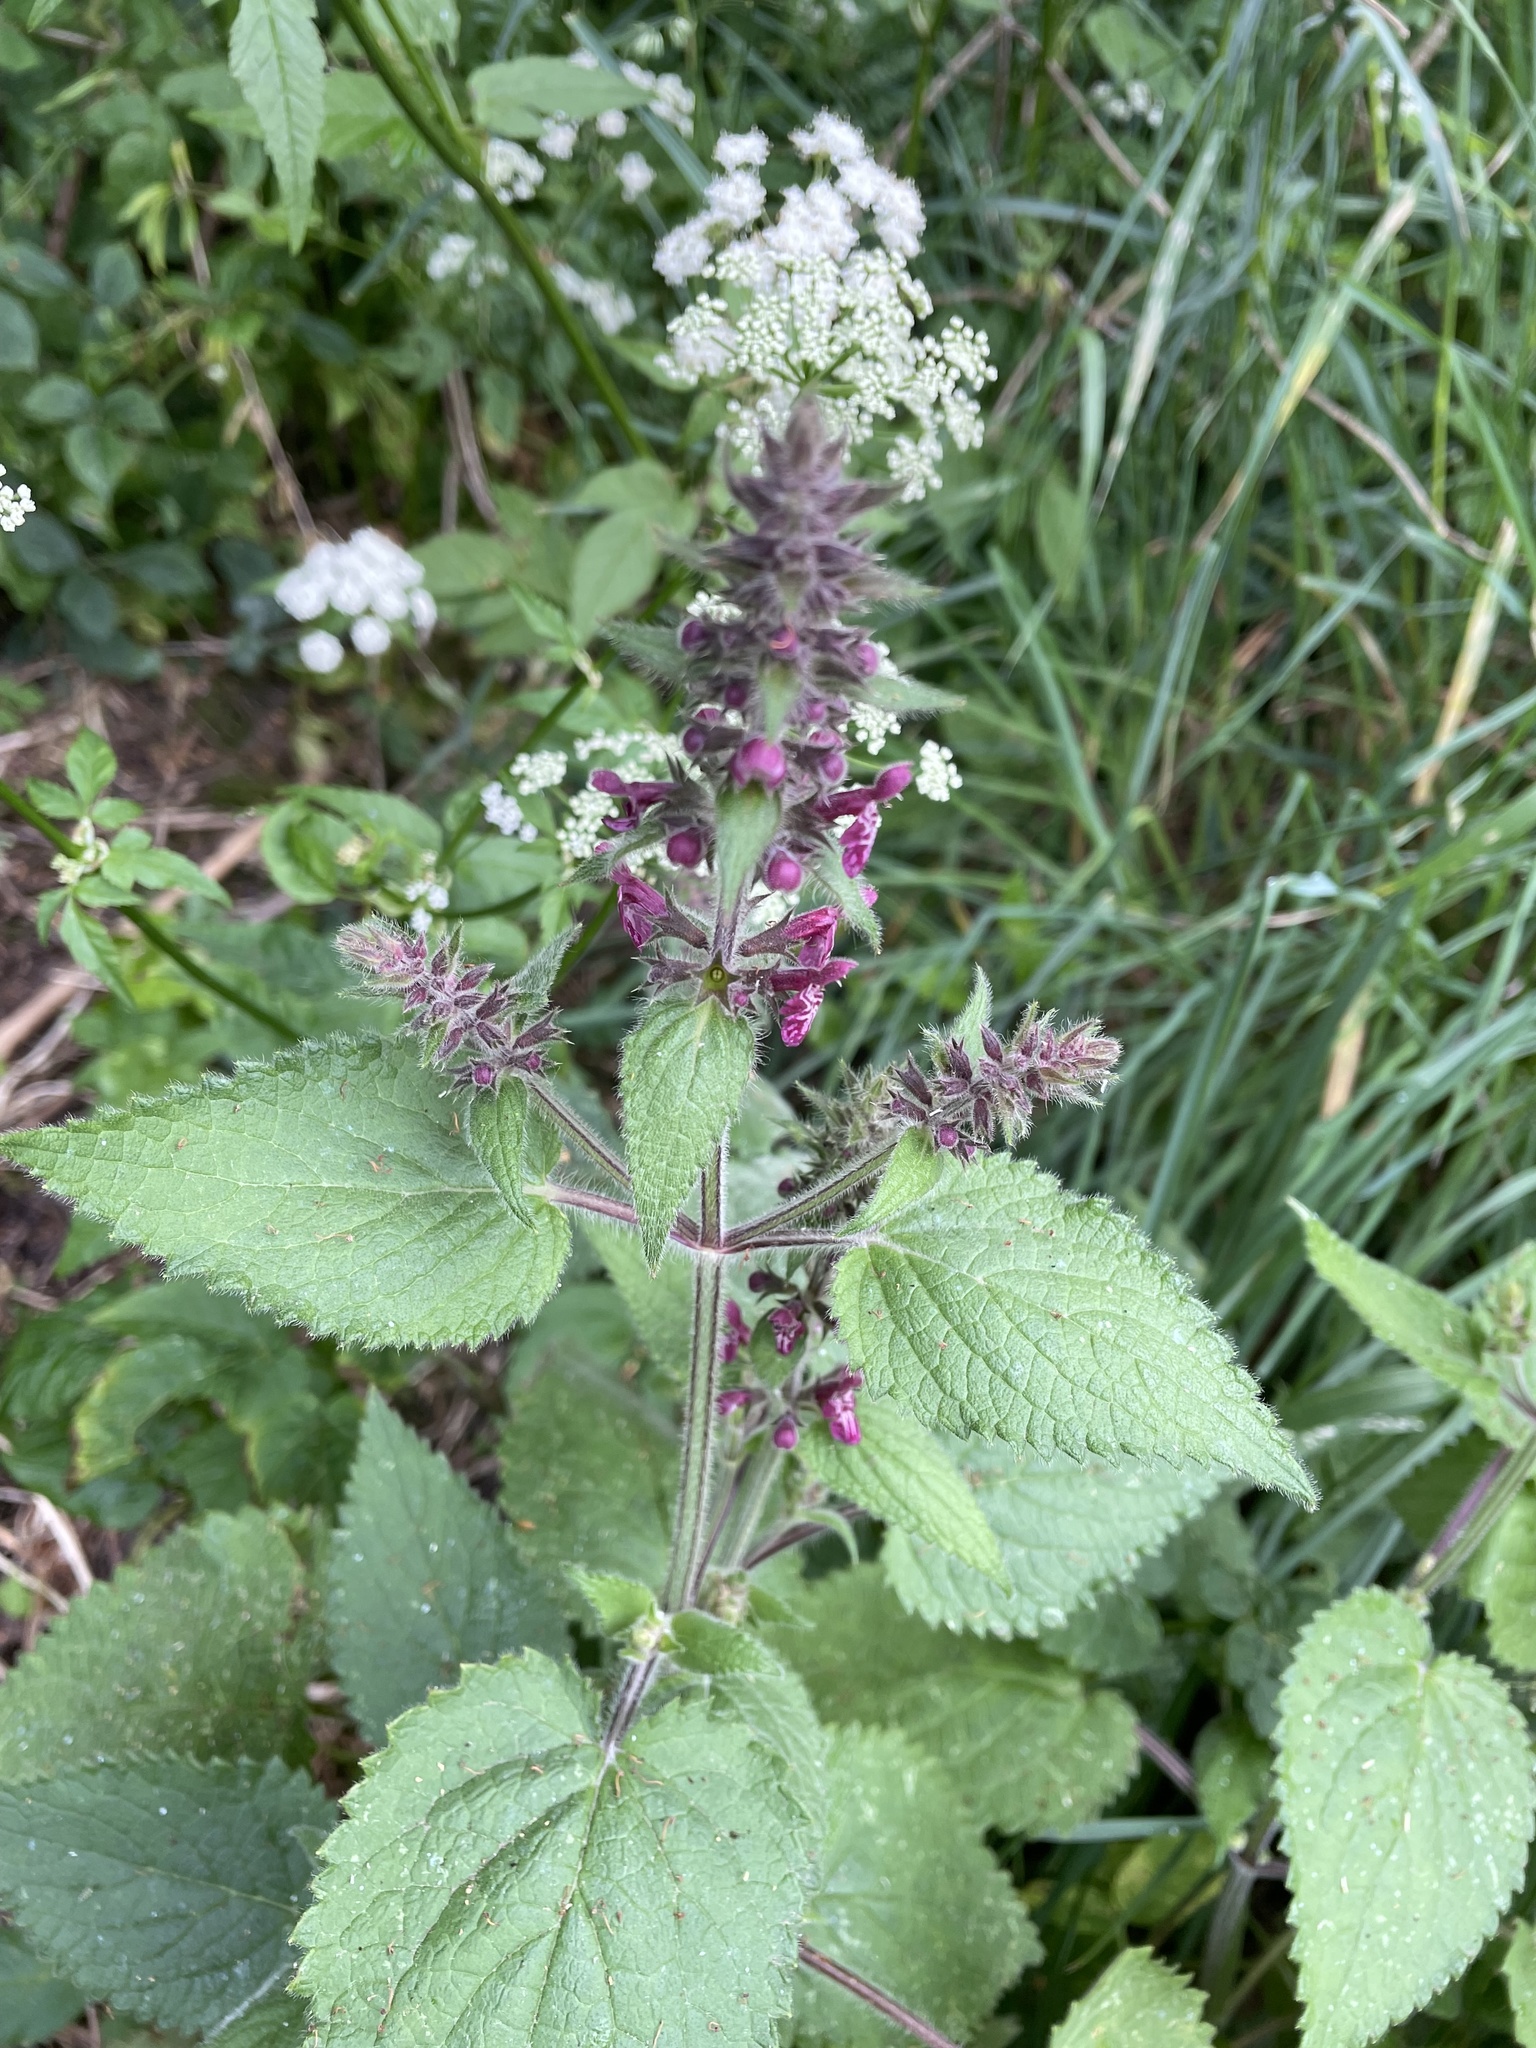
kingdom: Plantae
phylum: Tracheophyta
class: Magnoliopsida
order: Lamiales
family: Lamiaceae
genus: Stachys
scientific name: Stachys sylvatica
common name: Hedge woundwort
